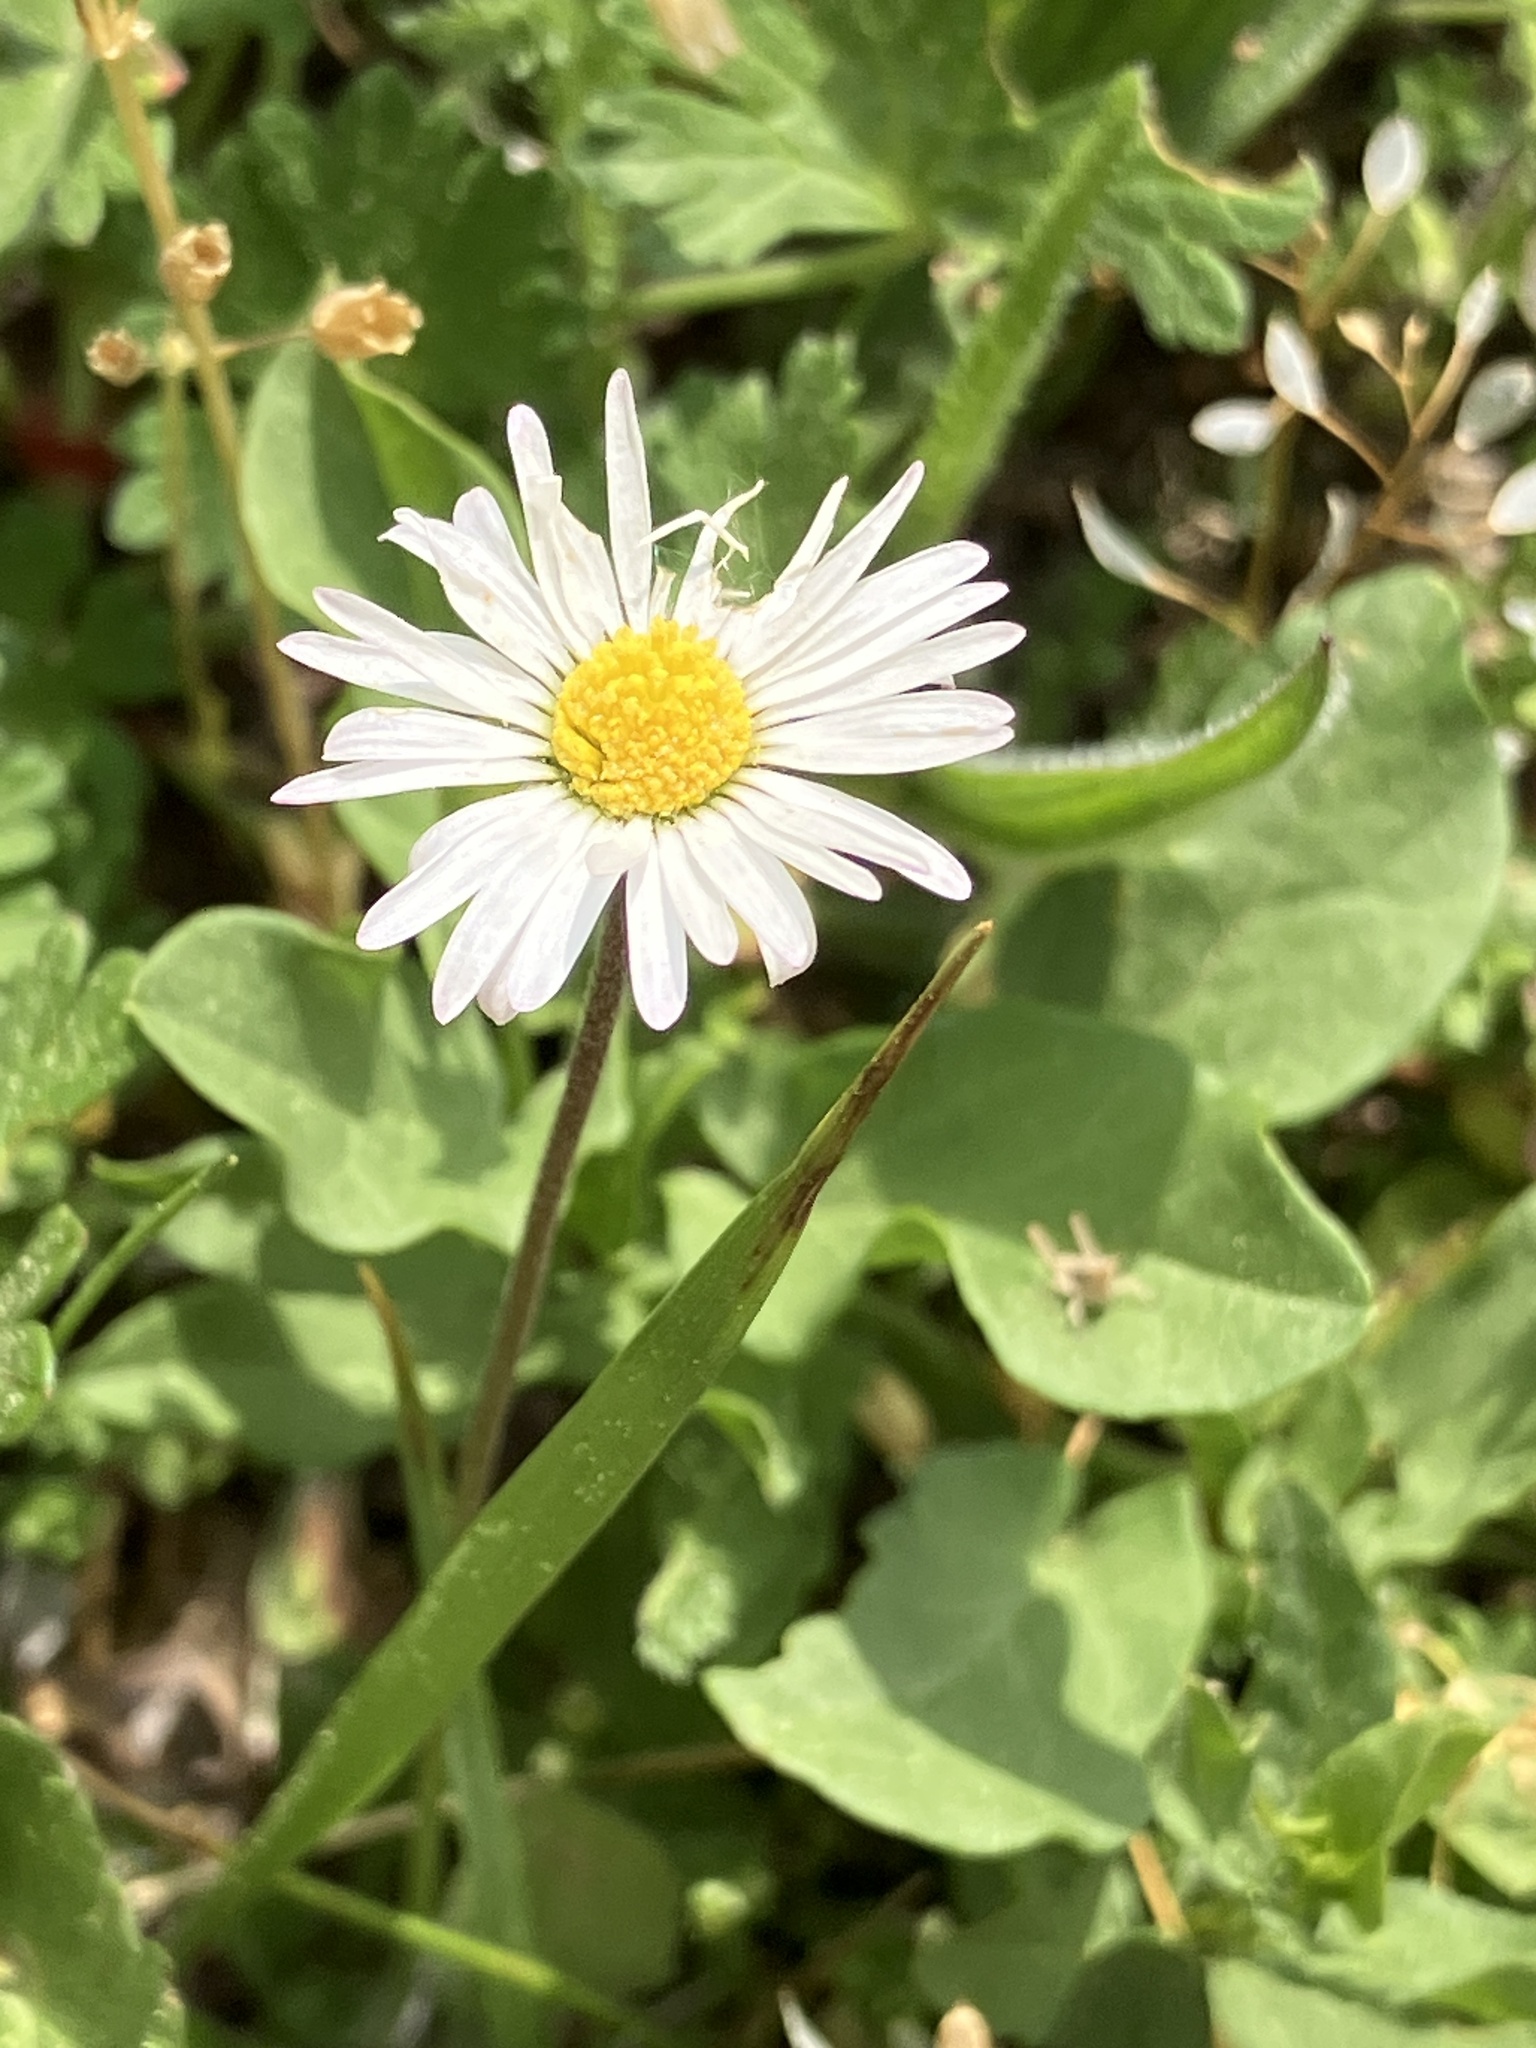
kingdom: Plantae
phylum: Tracheophyta
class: Magnoliopsida
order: Asterales
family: Asteraceae
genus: Bellis
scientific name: Bellis perennis
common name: Lawndaisy
